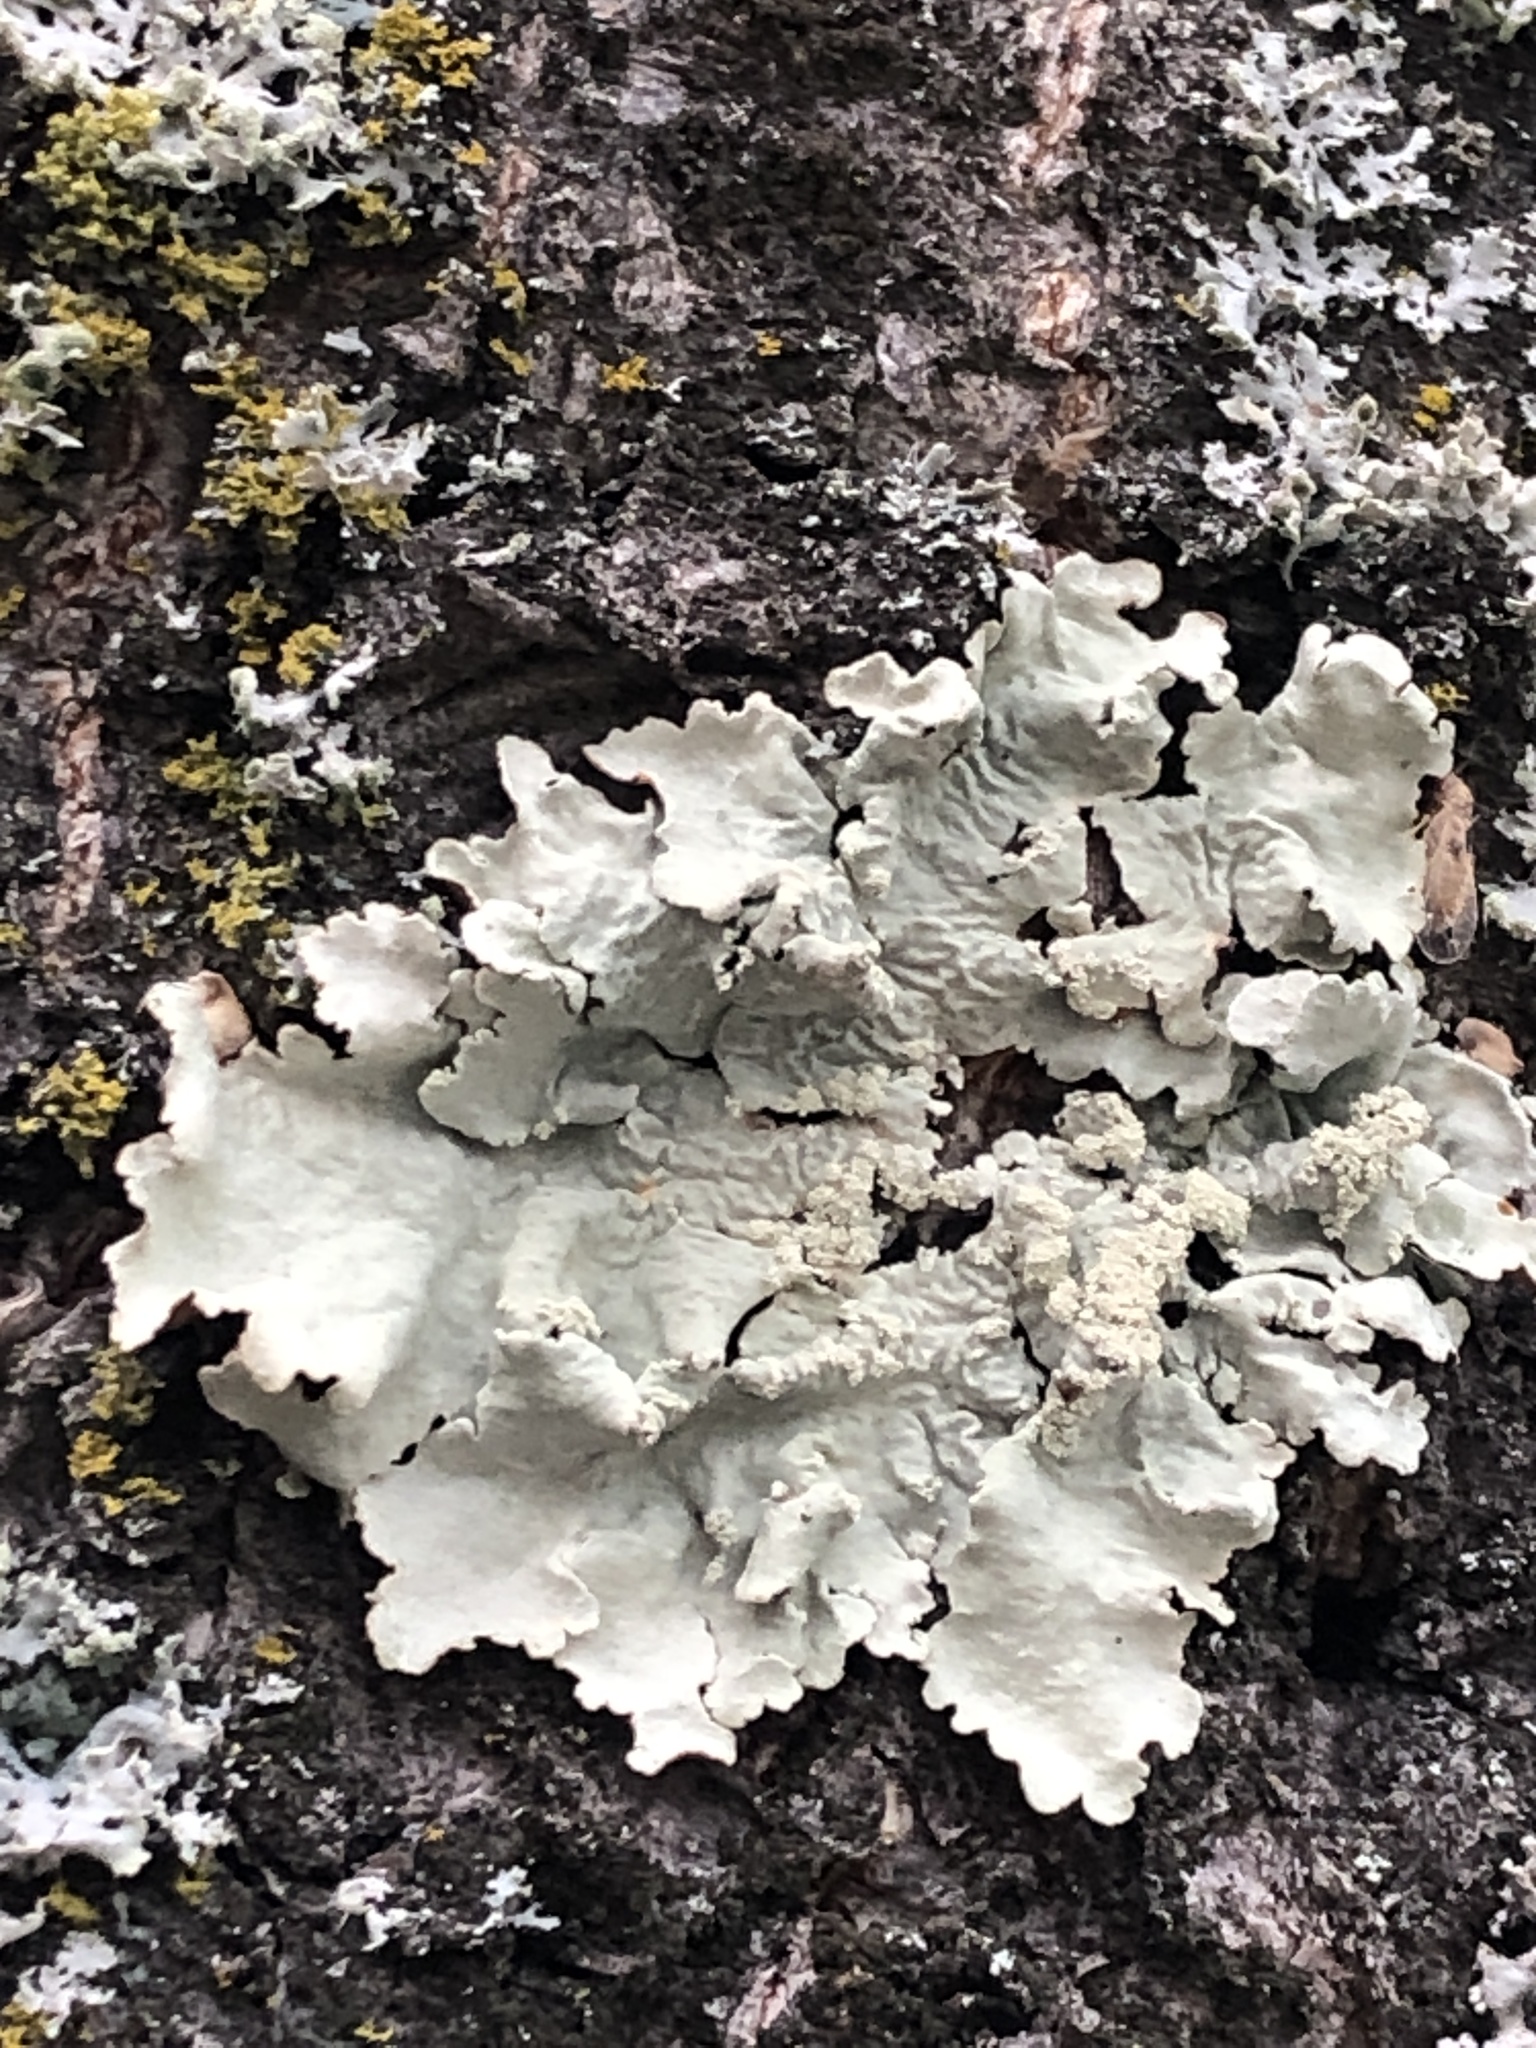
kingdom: Fungi
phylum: Ascomycota
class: Lecanoromycetes
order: Lecanorales
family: Parmeliaceae
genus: Flavoparmelia
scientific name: Flavoparmelia caperata
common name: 40-mile per hour lichen
